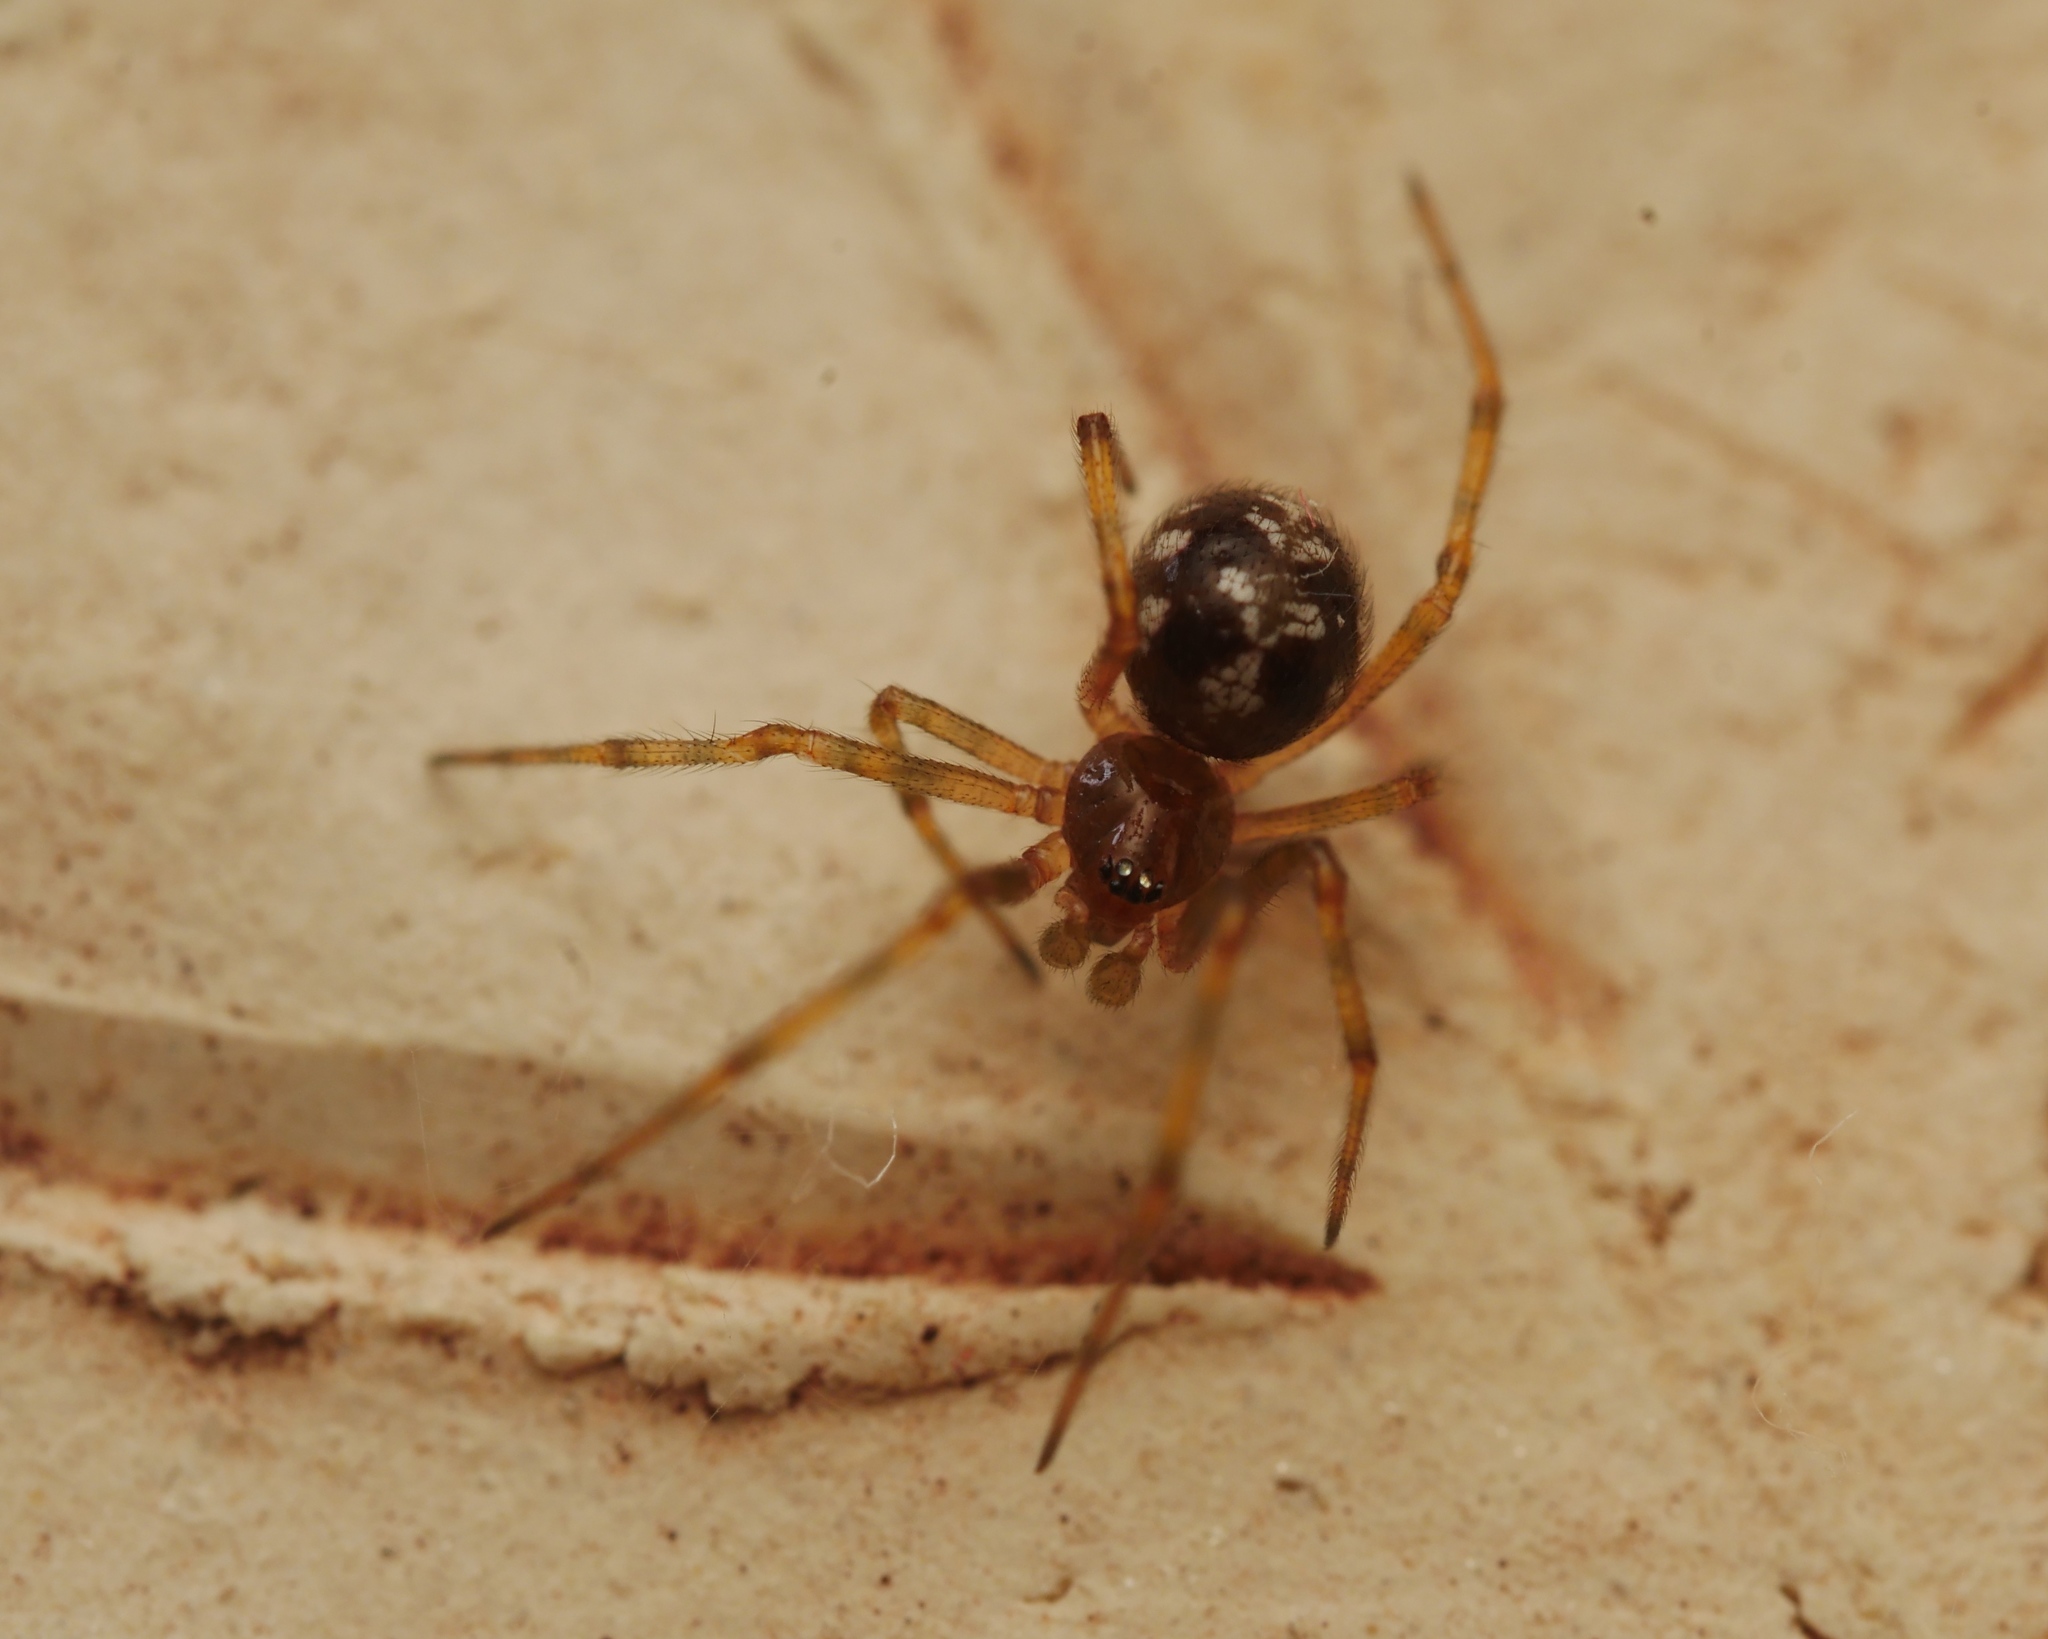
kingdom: Animalia
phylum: Arthropoda
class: Arachnida
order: Araneae
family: Theridiidae
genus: Steatoda
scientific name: Steatoda triangulosa
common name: Triangulate bud spider
